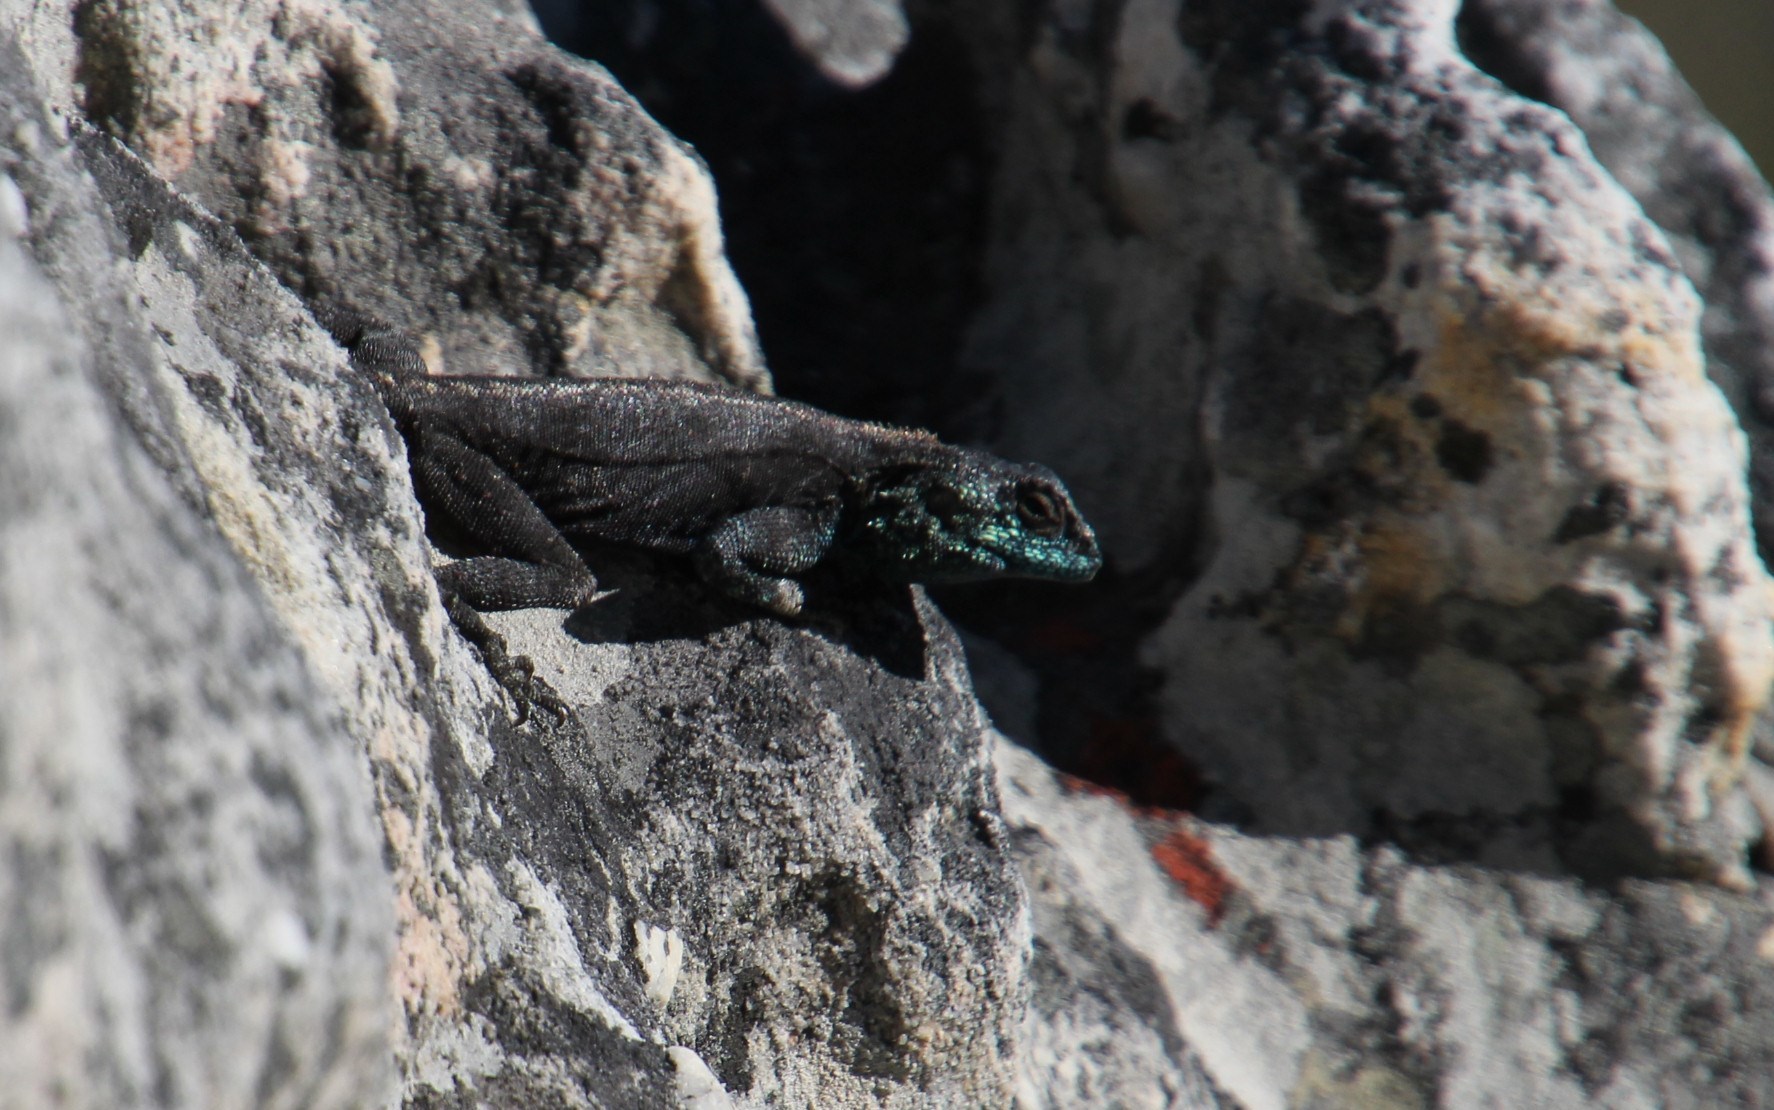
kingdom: Animalia
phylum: Chordata
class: Squamata
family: Agamidae
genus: Agama
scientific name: Agama atra
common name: Southern african rock agama
